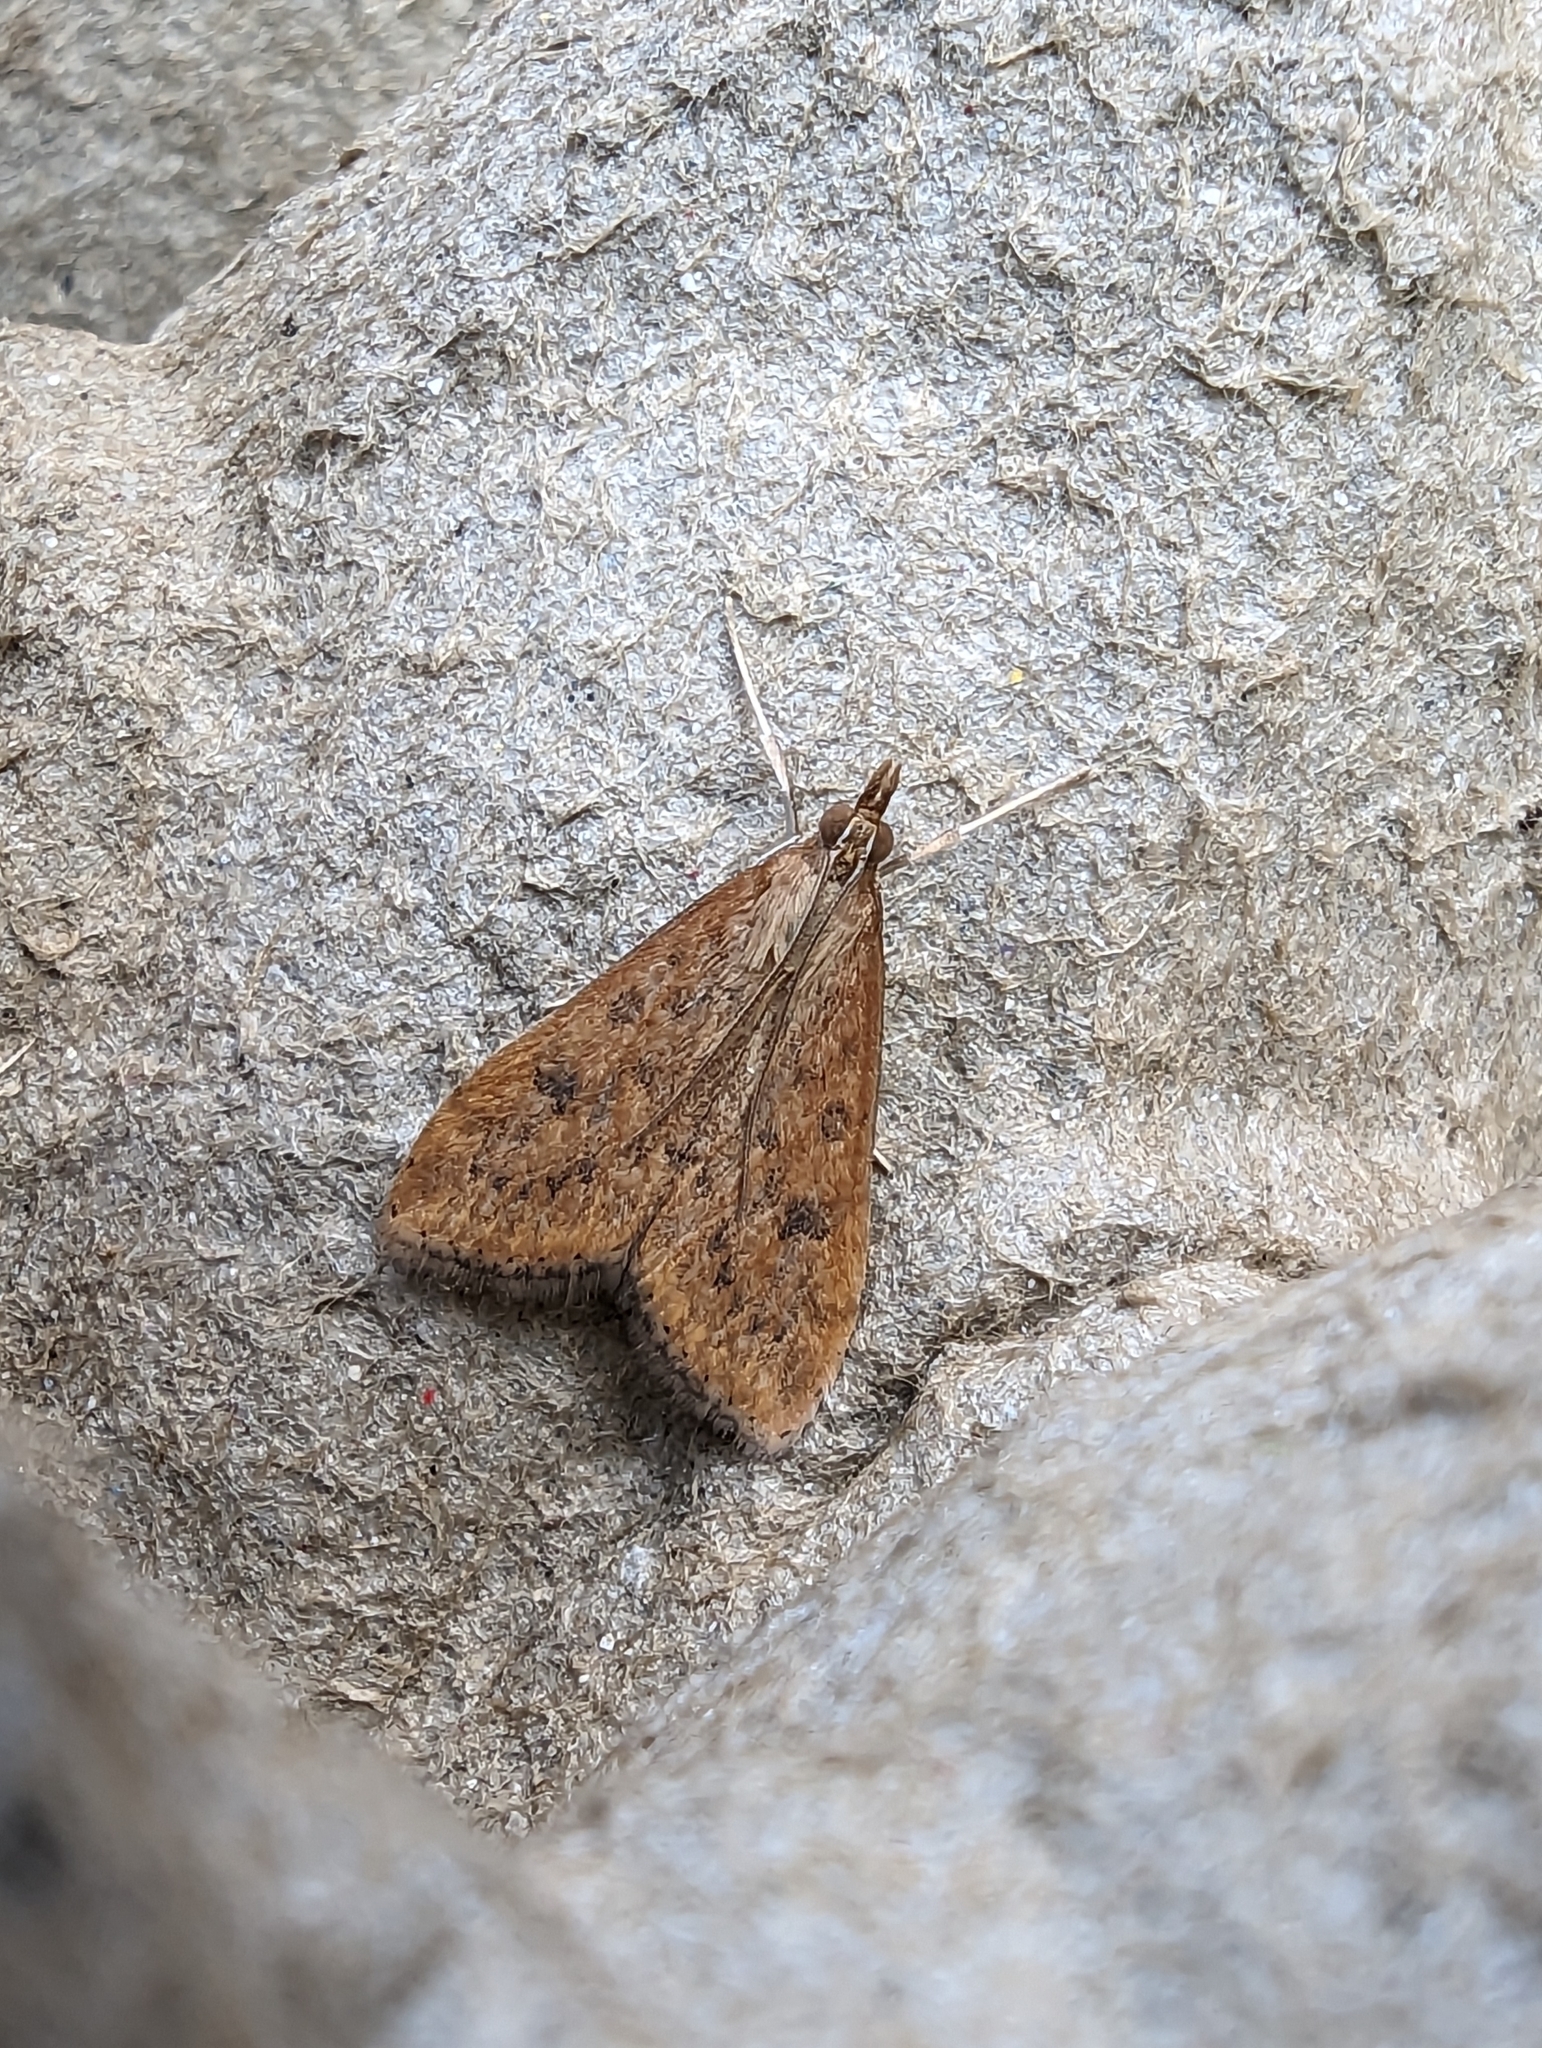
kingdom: Animalia
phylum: Arthropoda
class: Insecta
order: Lepidoptera
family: Crambidae
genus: Udea
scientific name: Udea ferrugalis
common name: Rusty dot
